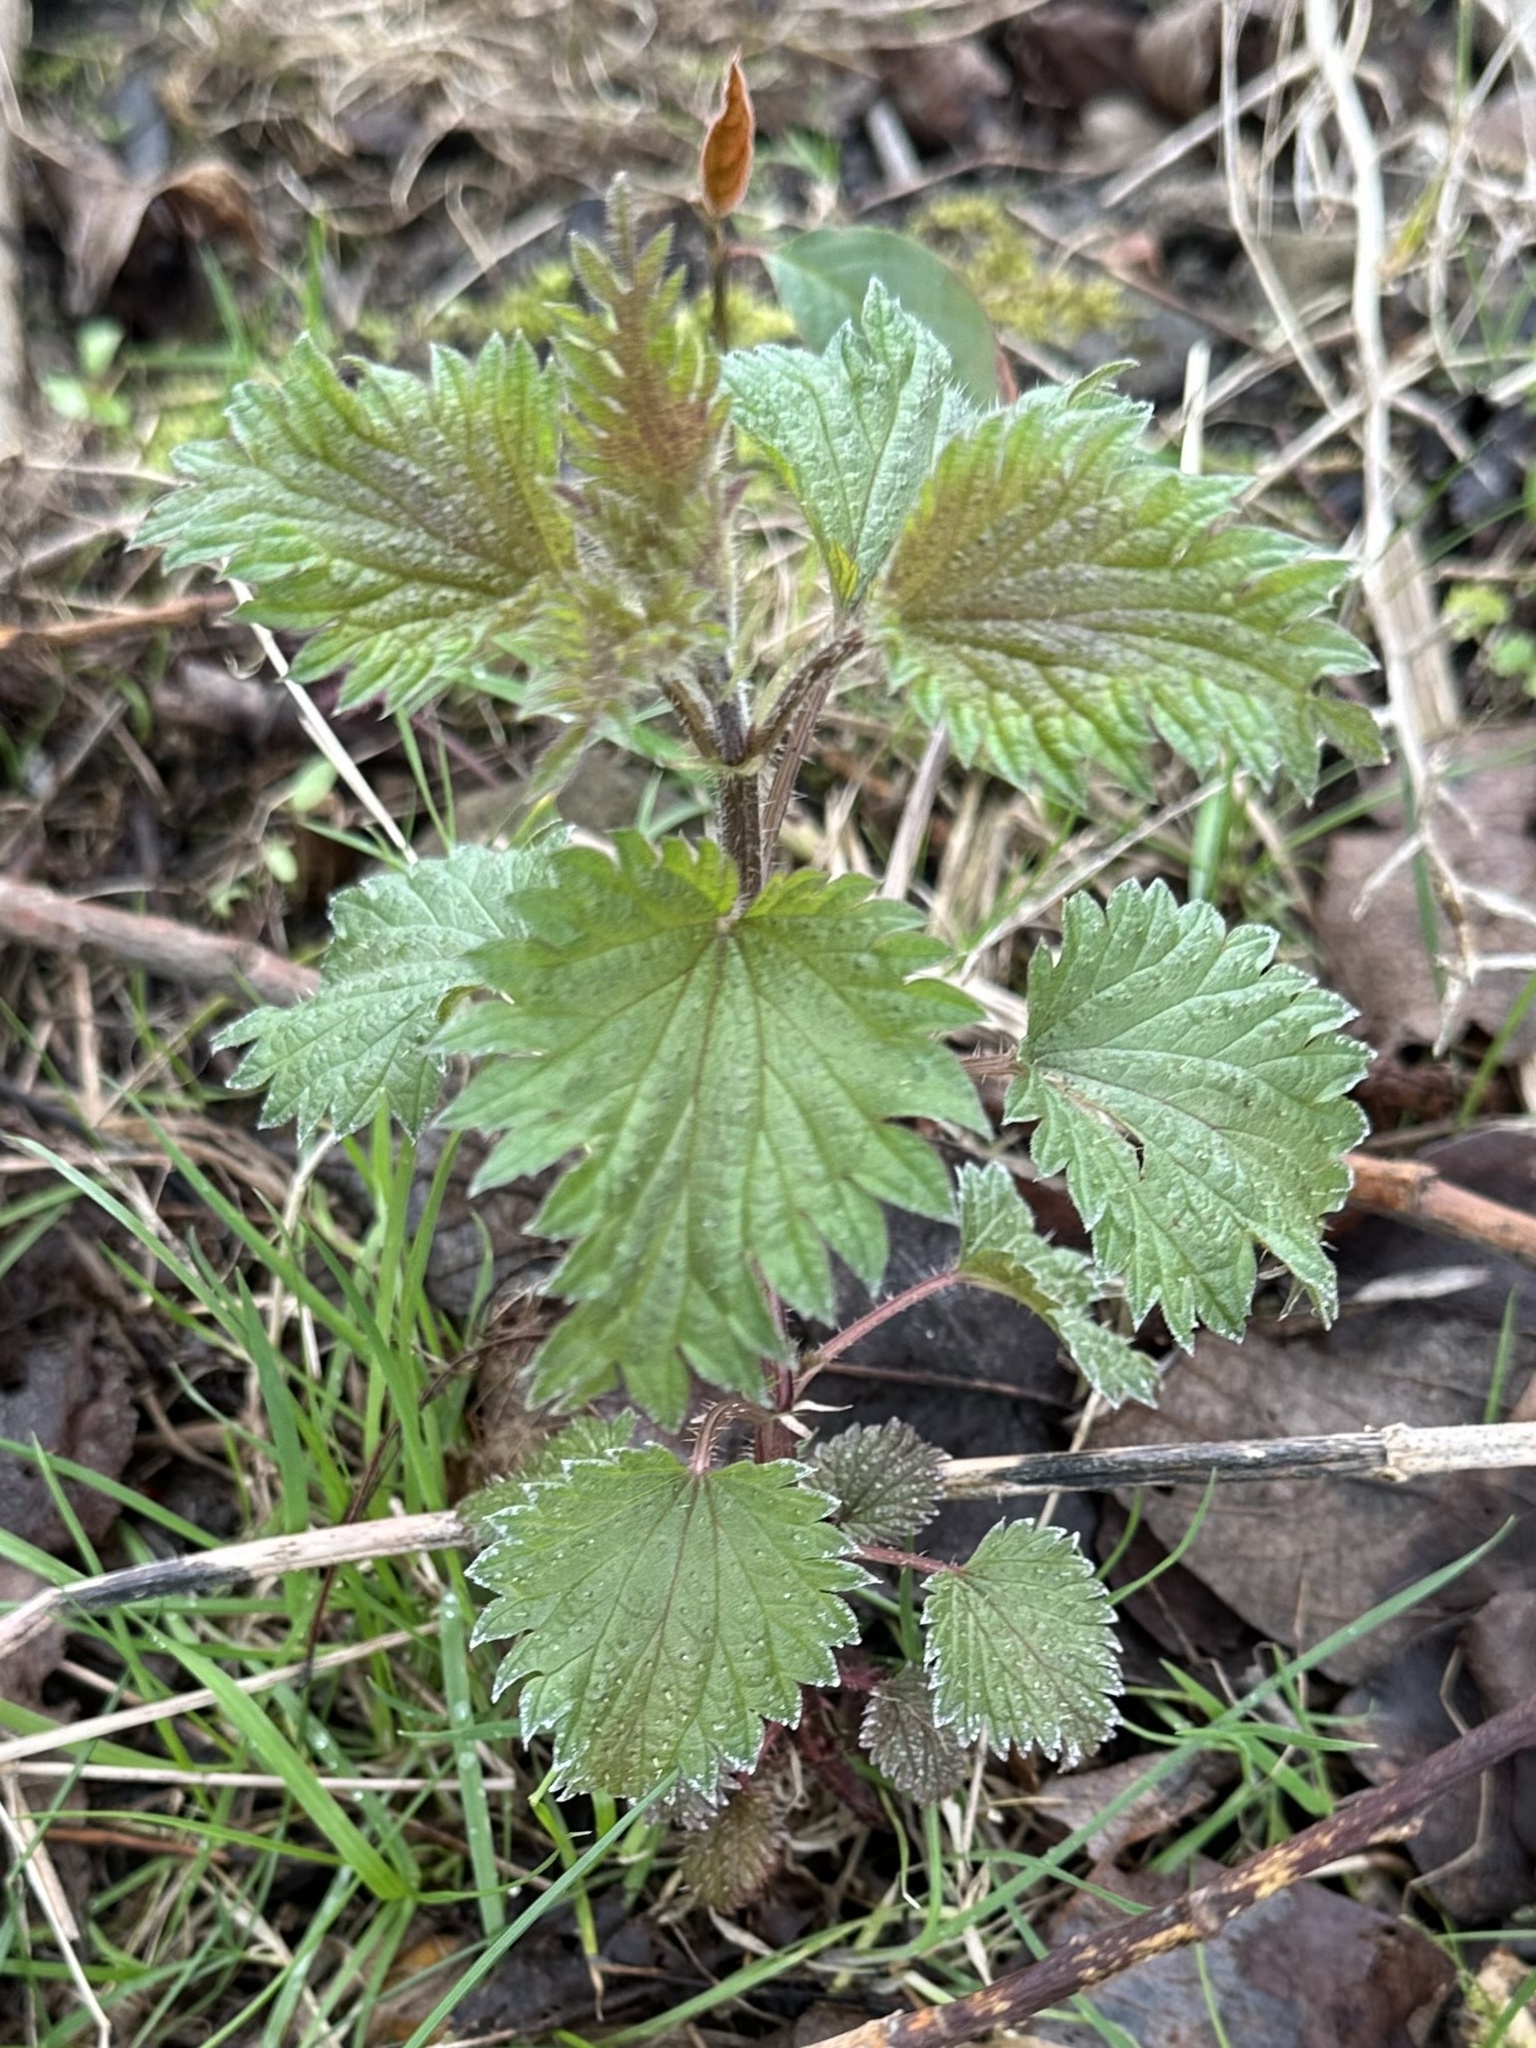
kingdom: Plantae
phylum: Tracheophyta
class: Magnoliopsida
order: Rosales
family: Urticaceae
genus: Urtica
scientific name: Urtica dioica
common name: Common nettle
